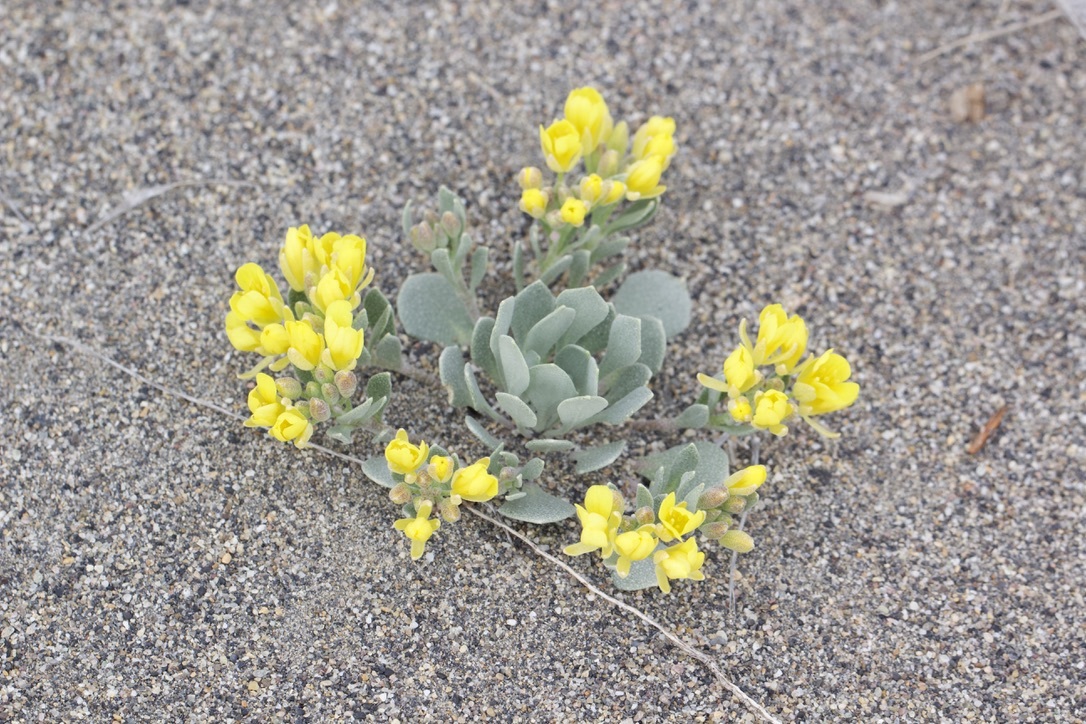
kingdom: Plantae
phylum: Tracheophyta
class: Magnoliopsida
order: Brassicales
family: Brassicaceae
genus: Physaria
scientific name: Physaria didymocarpa
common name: Common twinpod
